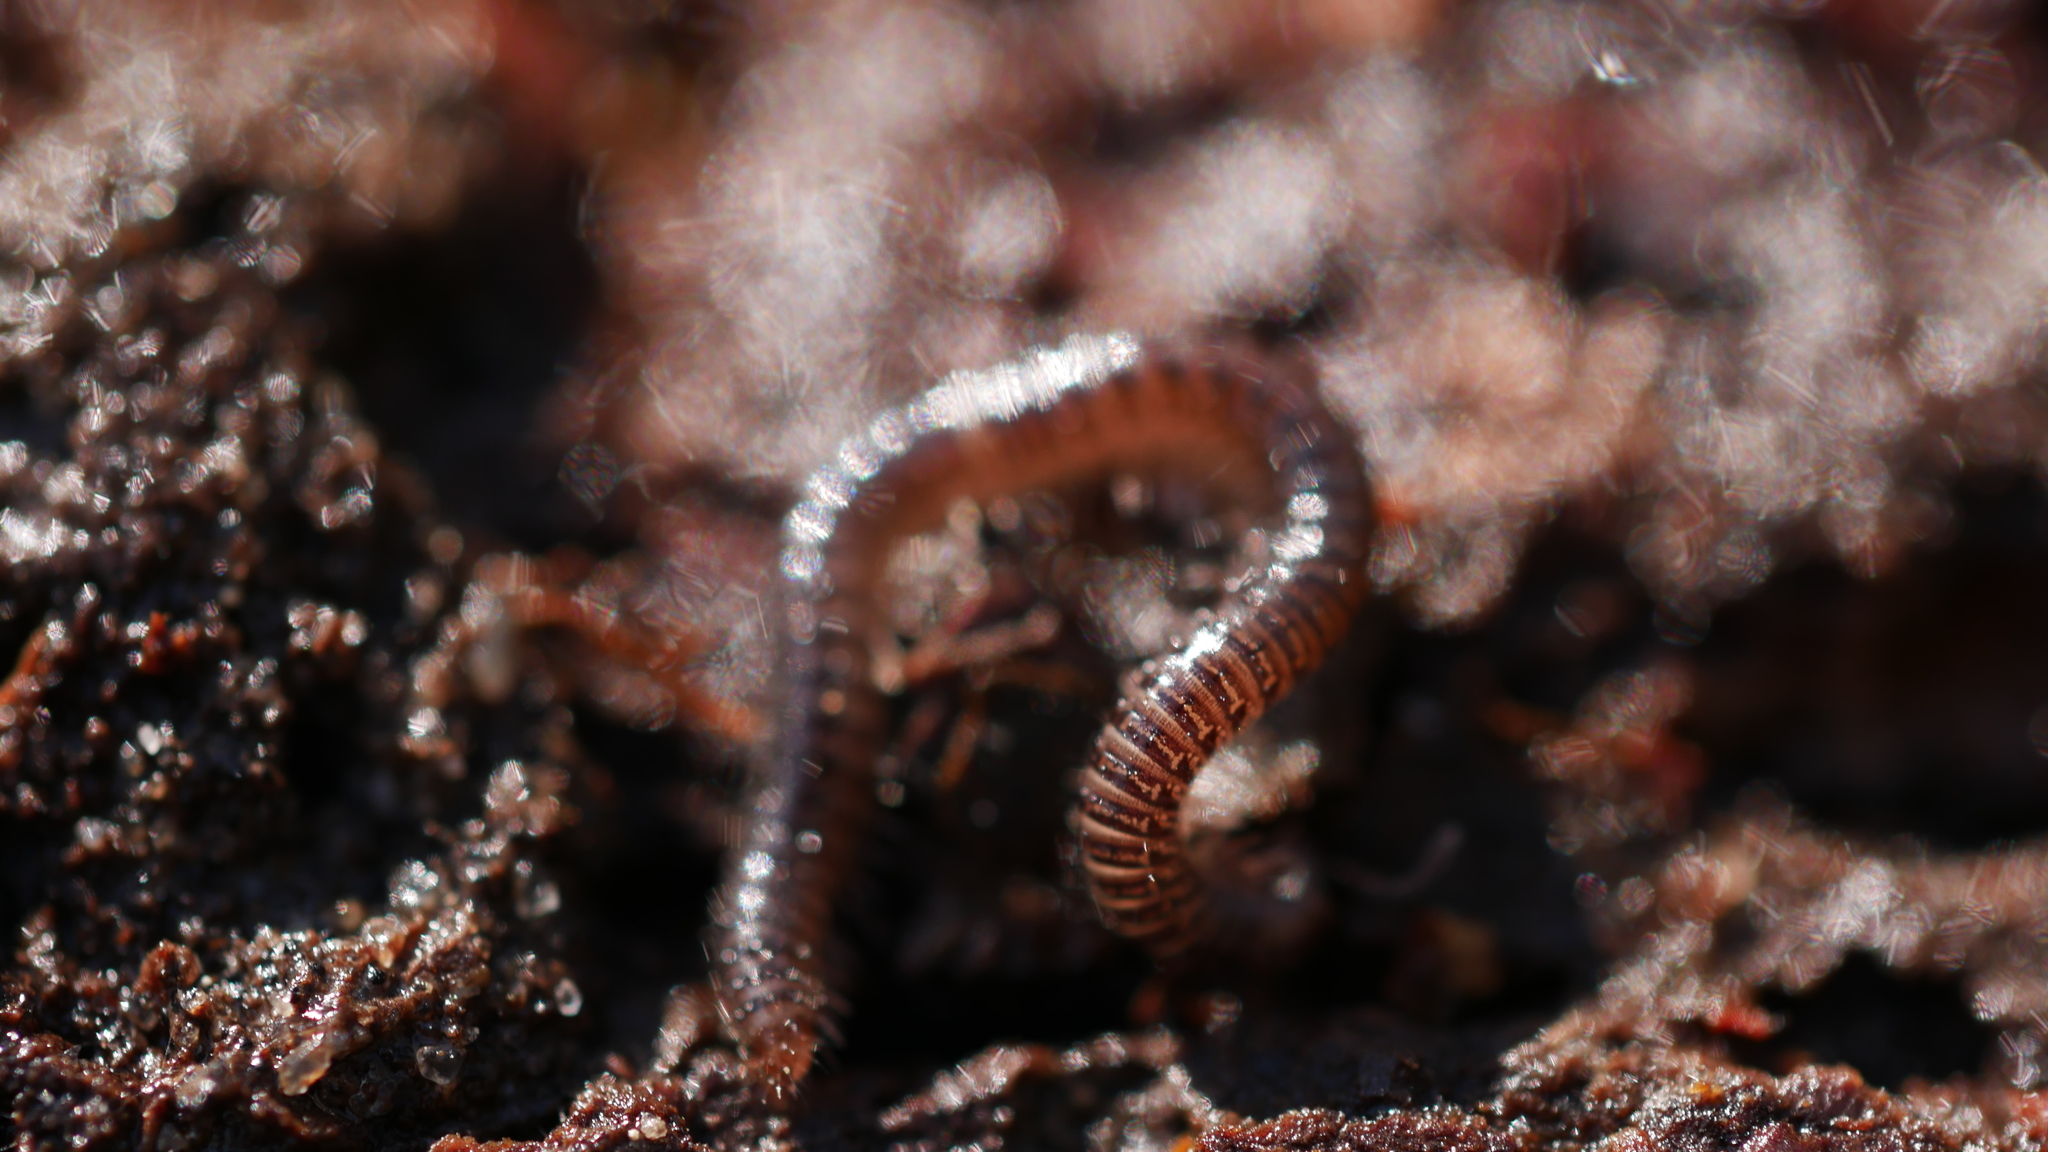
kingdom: Animalia
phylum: Arthropoda
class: Diplopoda
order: Julida
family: Julidae
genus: Ophyiulus
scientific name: Ophyiulus pilosus
